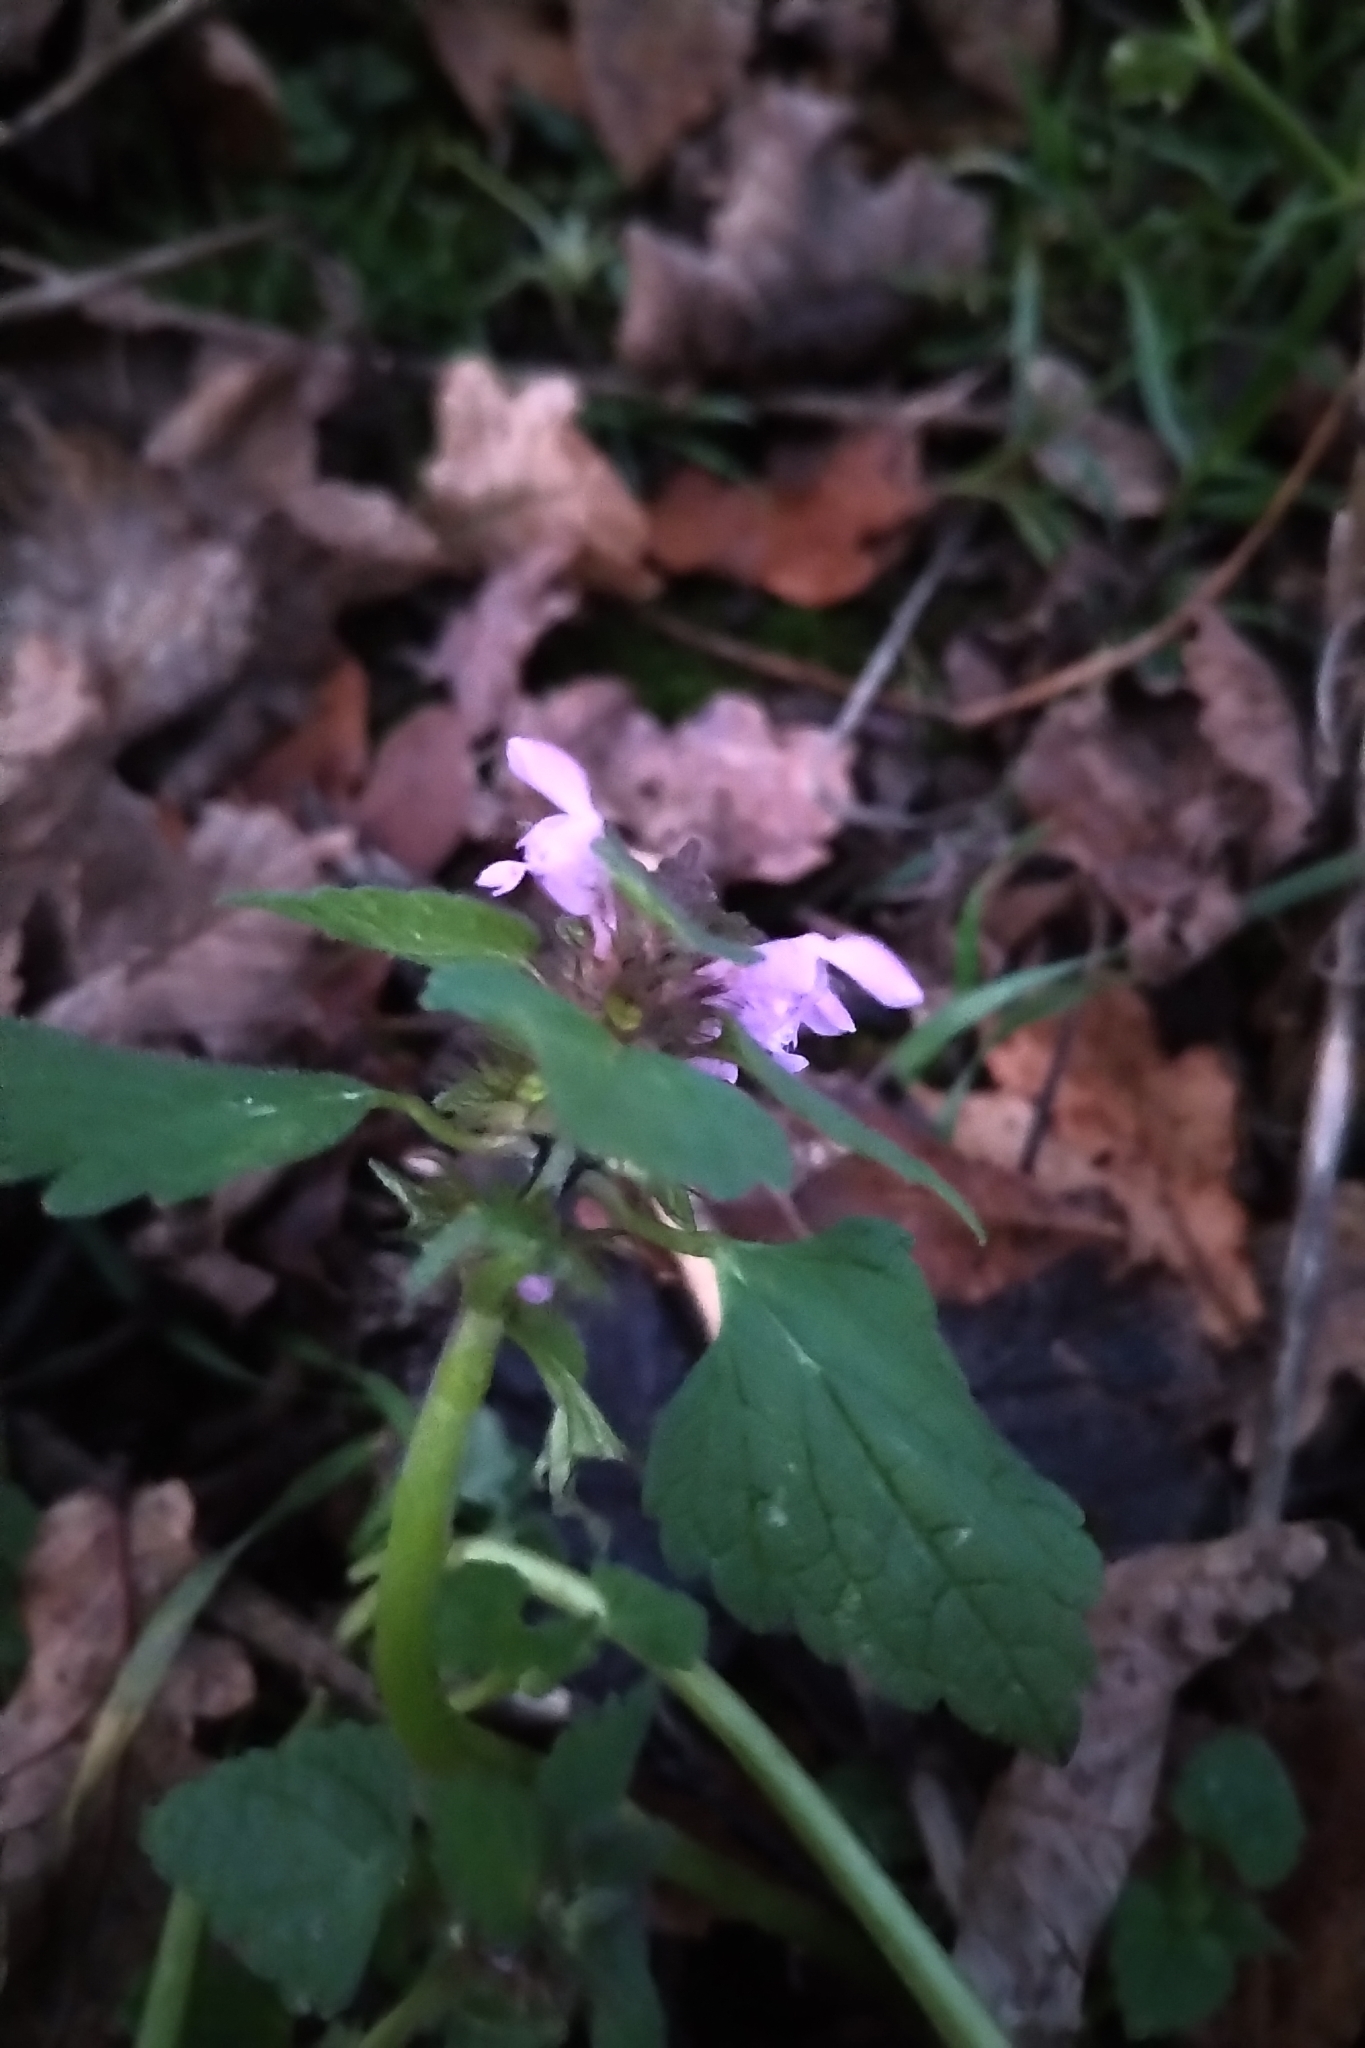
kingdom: Plantae
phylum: Tracheophyta
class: Magnoliopsida
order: Lamiales
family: Lamiaceae
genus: Lamium
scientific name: Lamium purpureum
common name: Red dead-nettle
